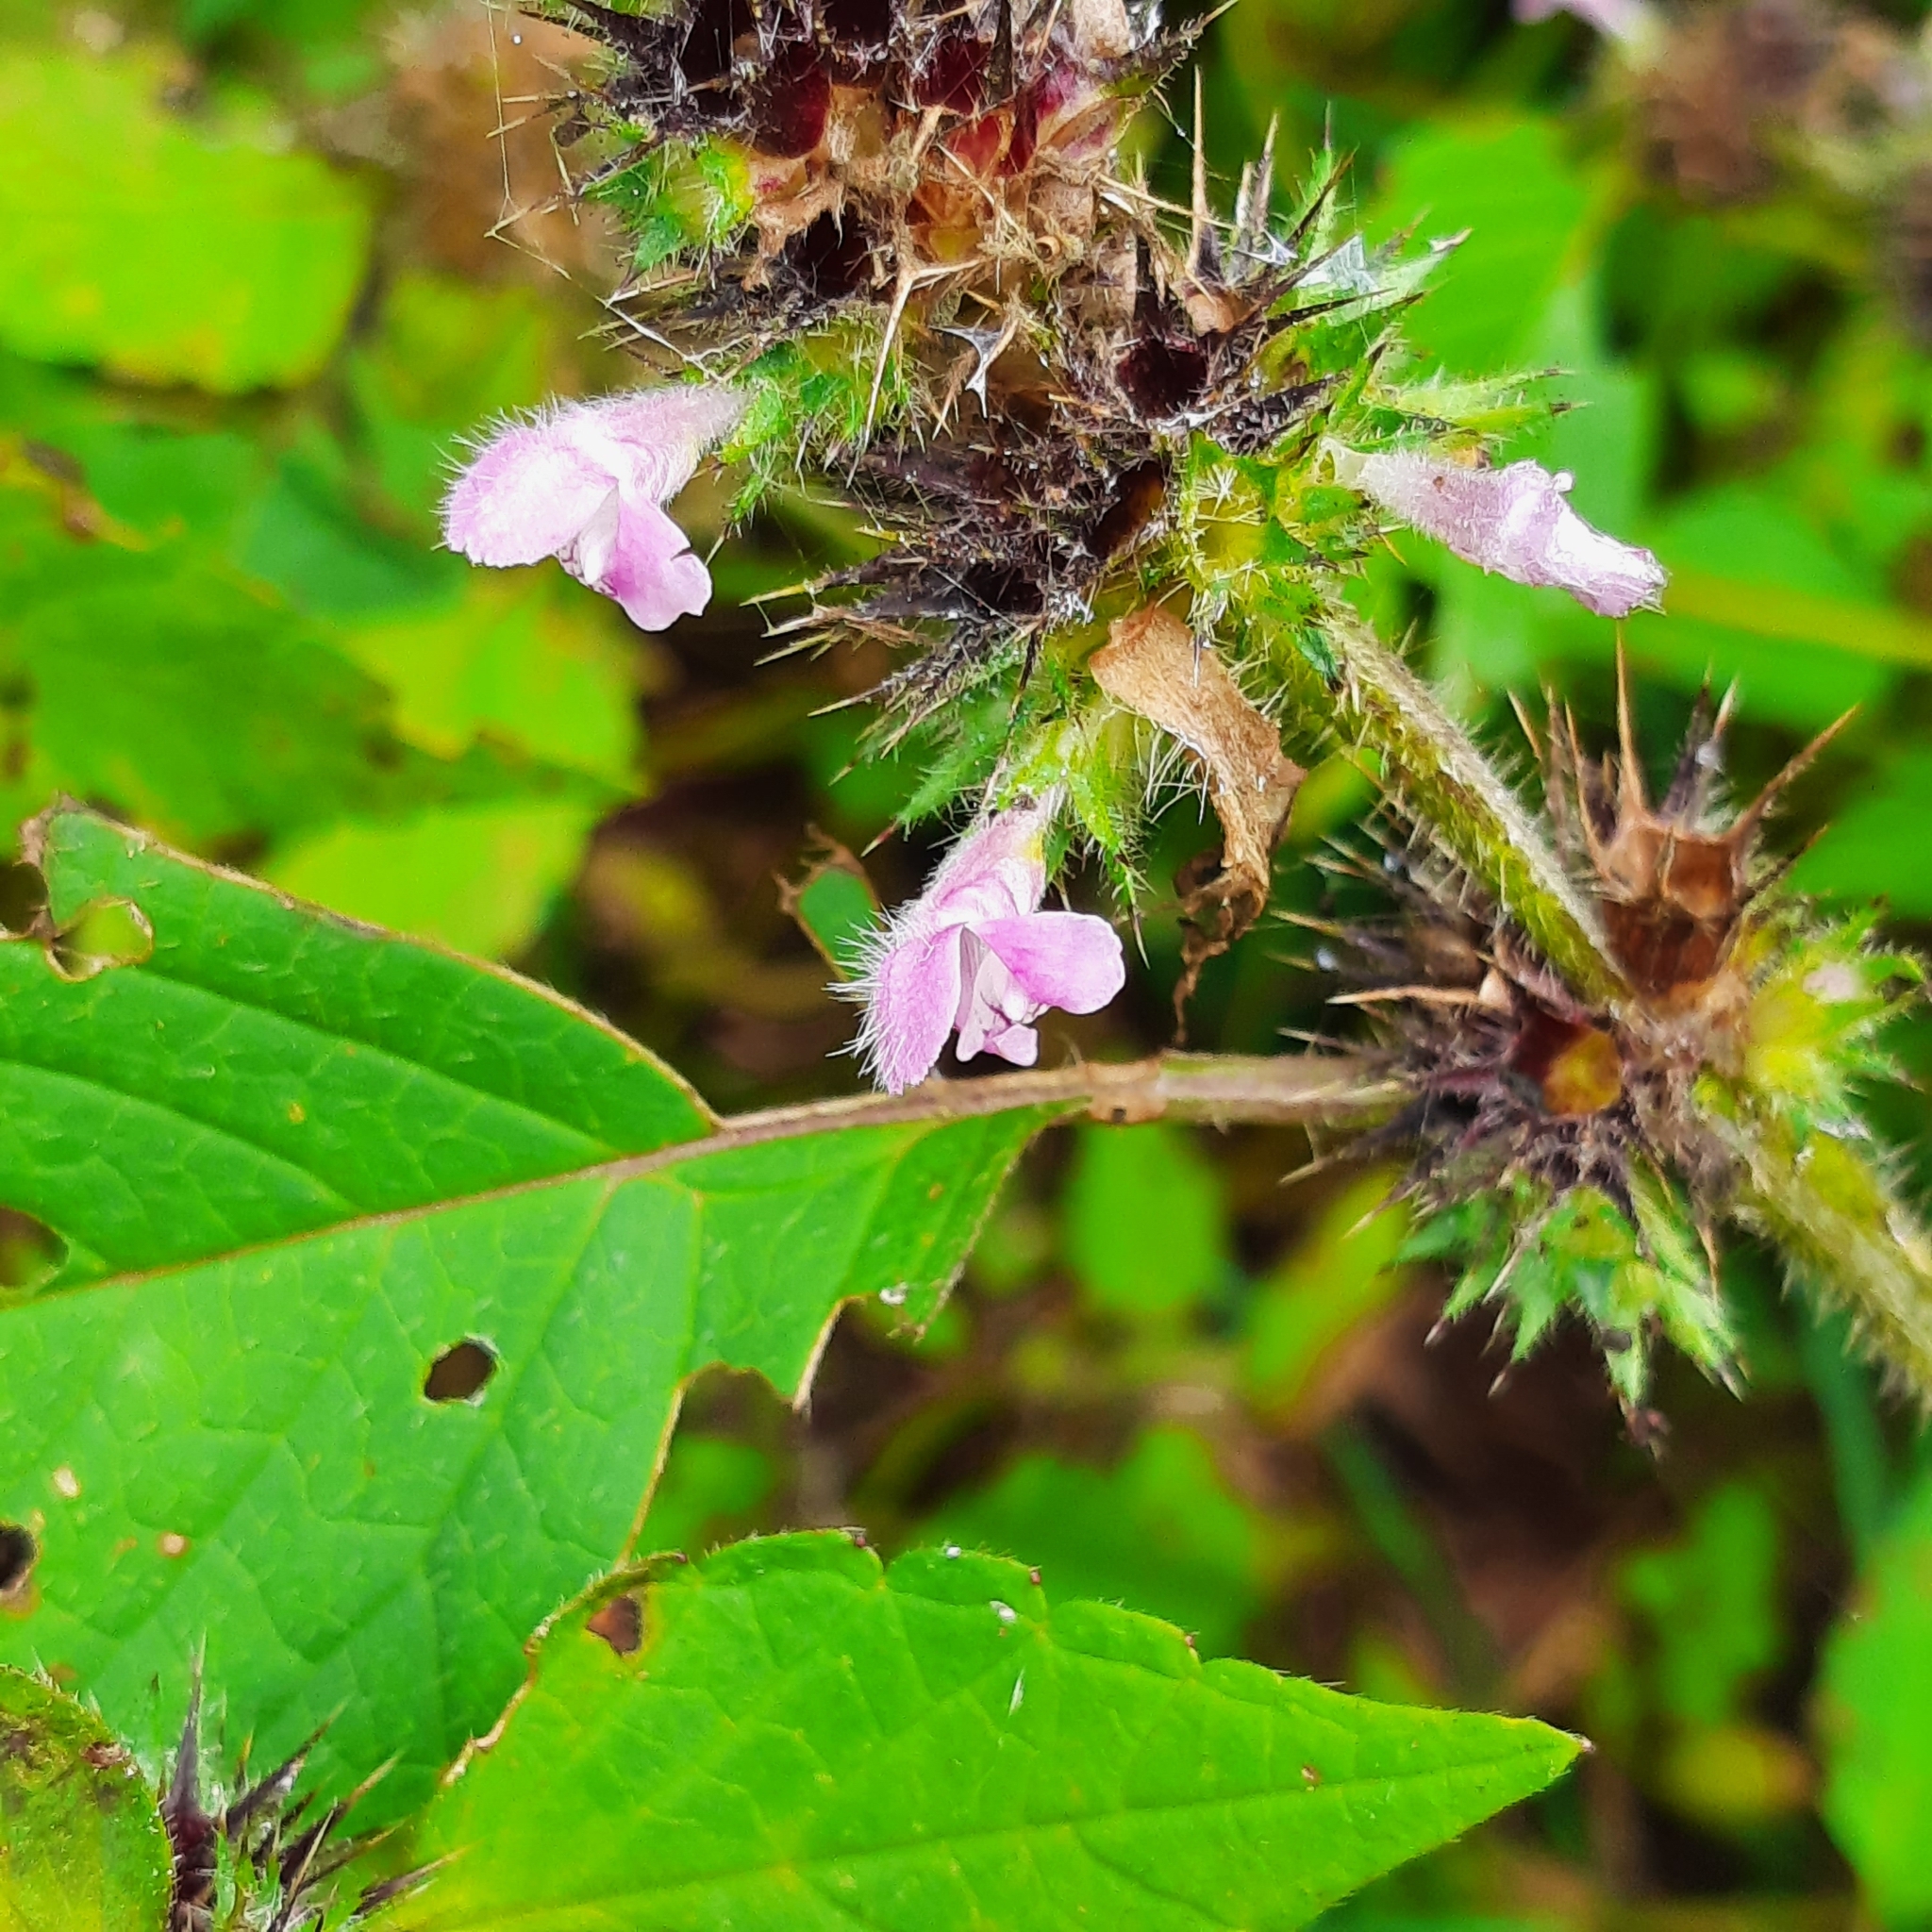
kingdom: Plantae
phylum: Tracheophyta
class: Magnoliopsida
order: Lamiales
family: Lamiaceae
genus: Galeopsis
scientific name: Galeopsis tetrahit
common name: Common hemp-nettle
